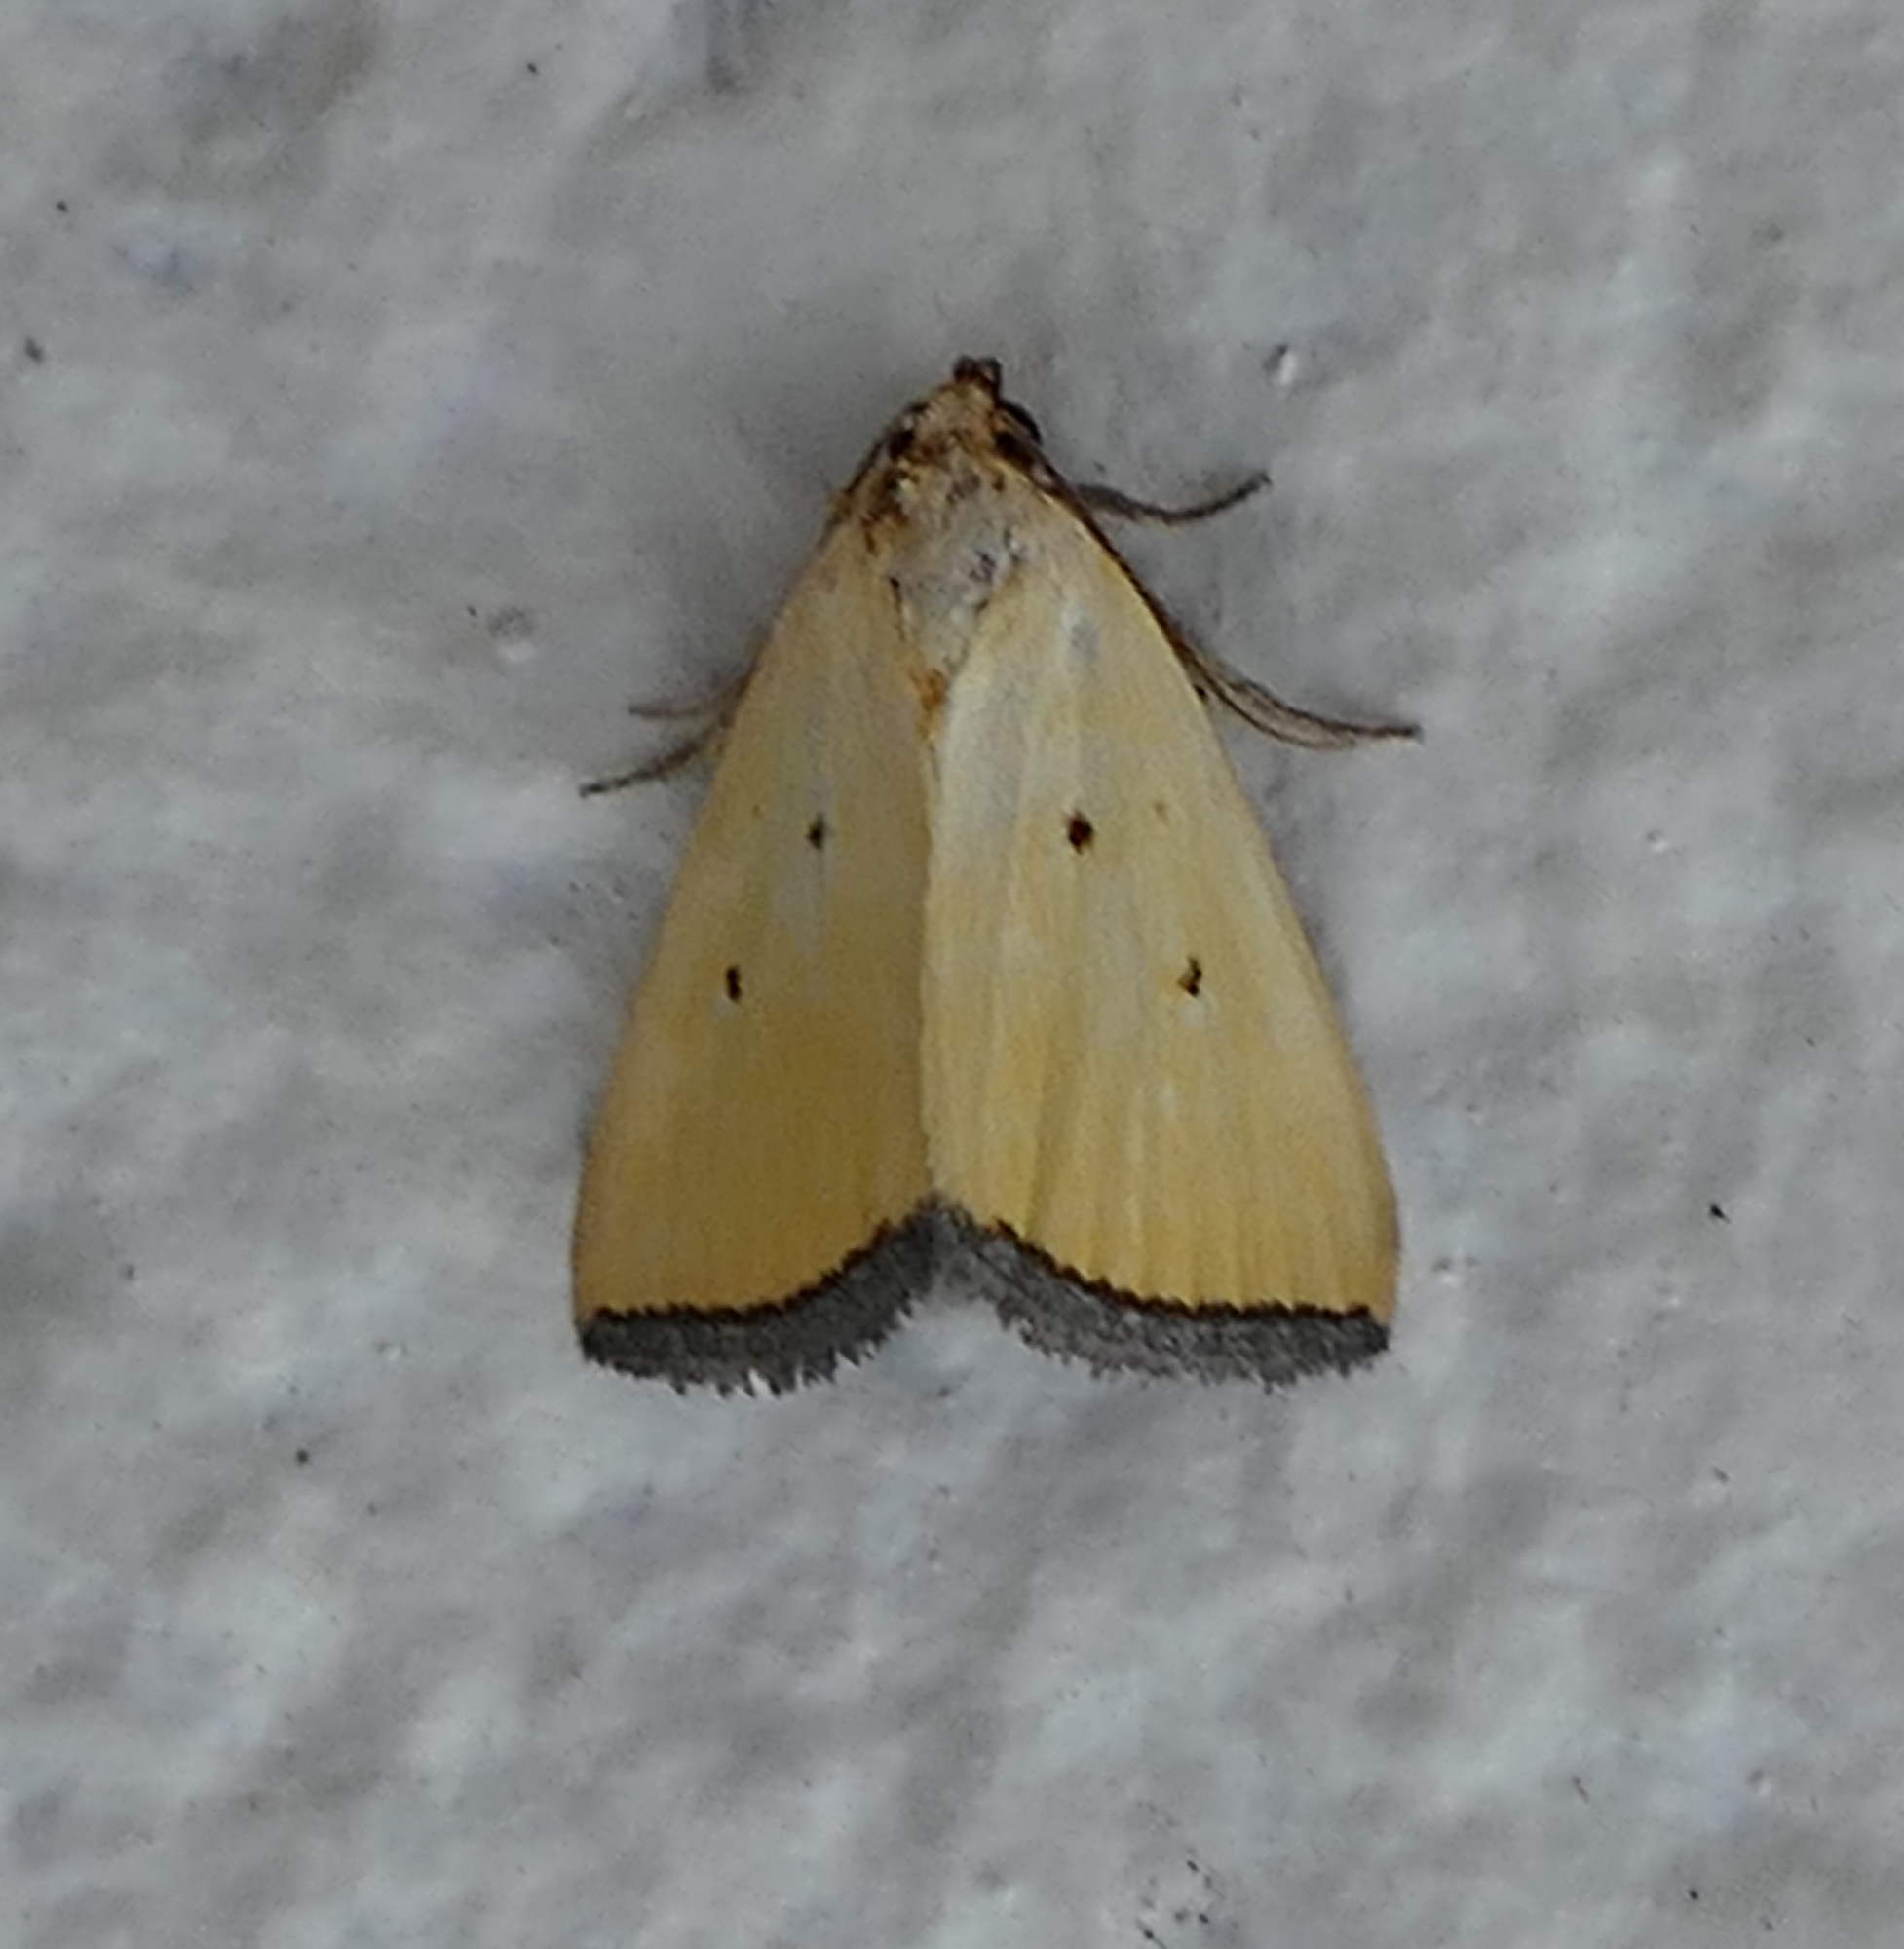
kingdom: Animalia
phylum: Arthropoda
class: Insecta
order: Lepidoptera
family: Noctuidae
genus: Marimatha
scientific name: Marimatha nigrofimbria
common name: Black-bordered lemon moth
